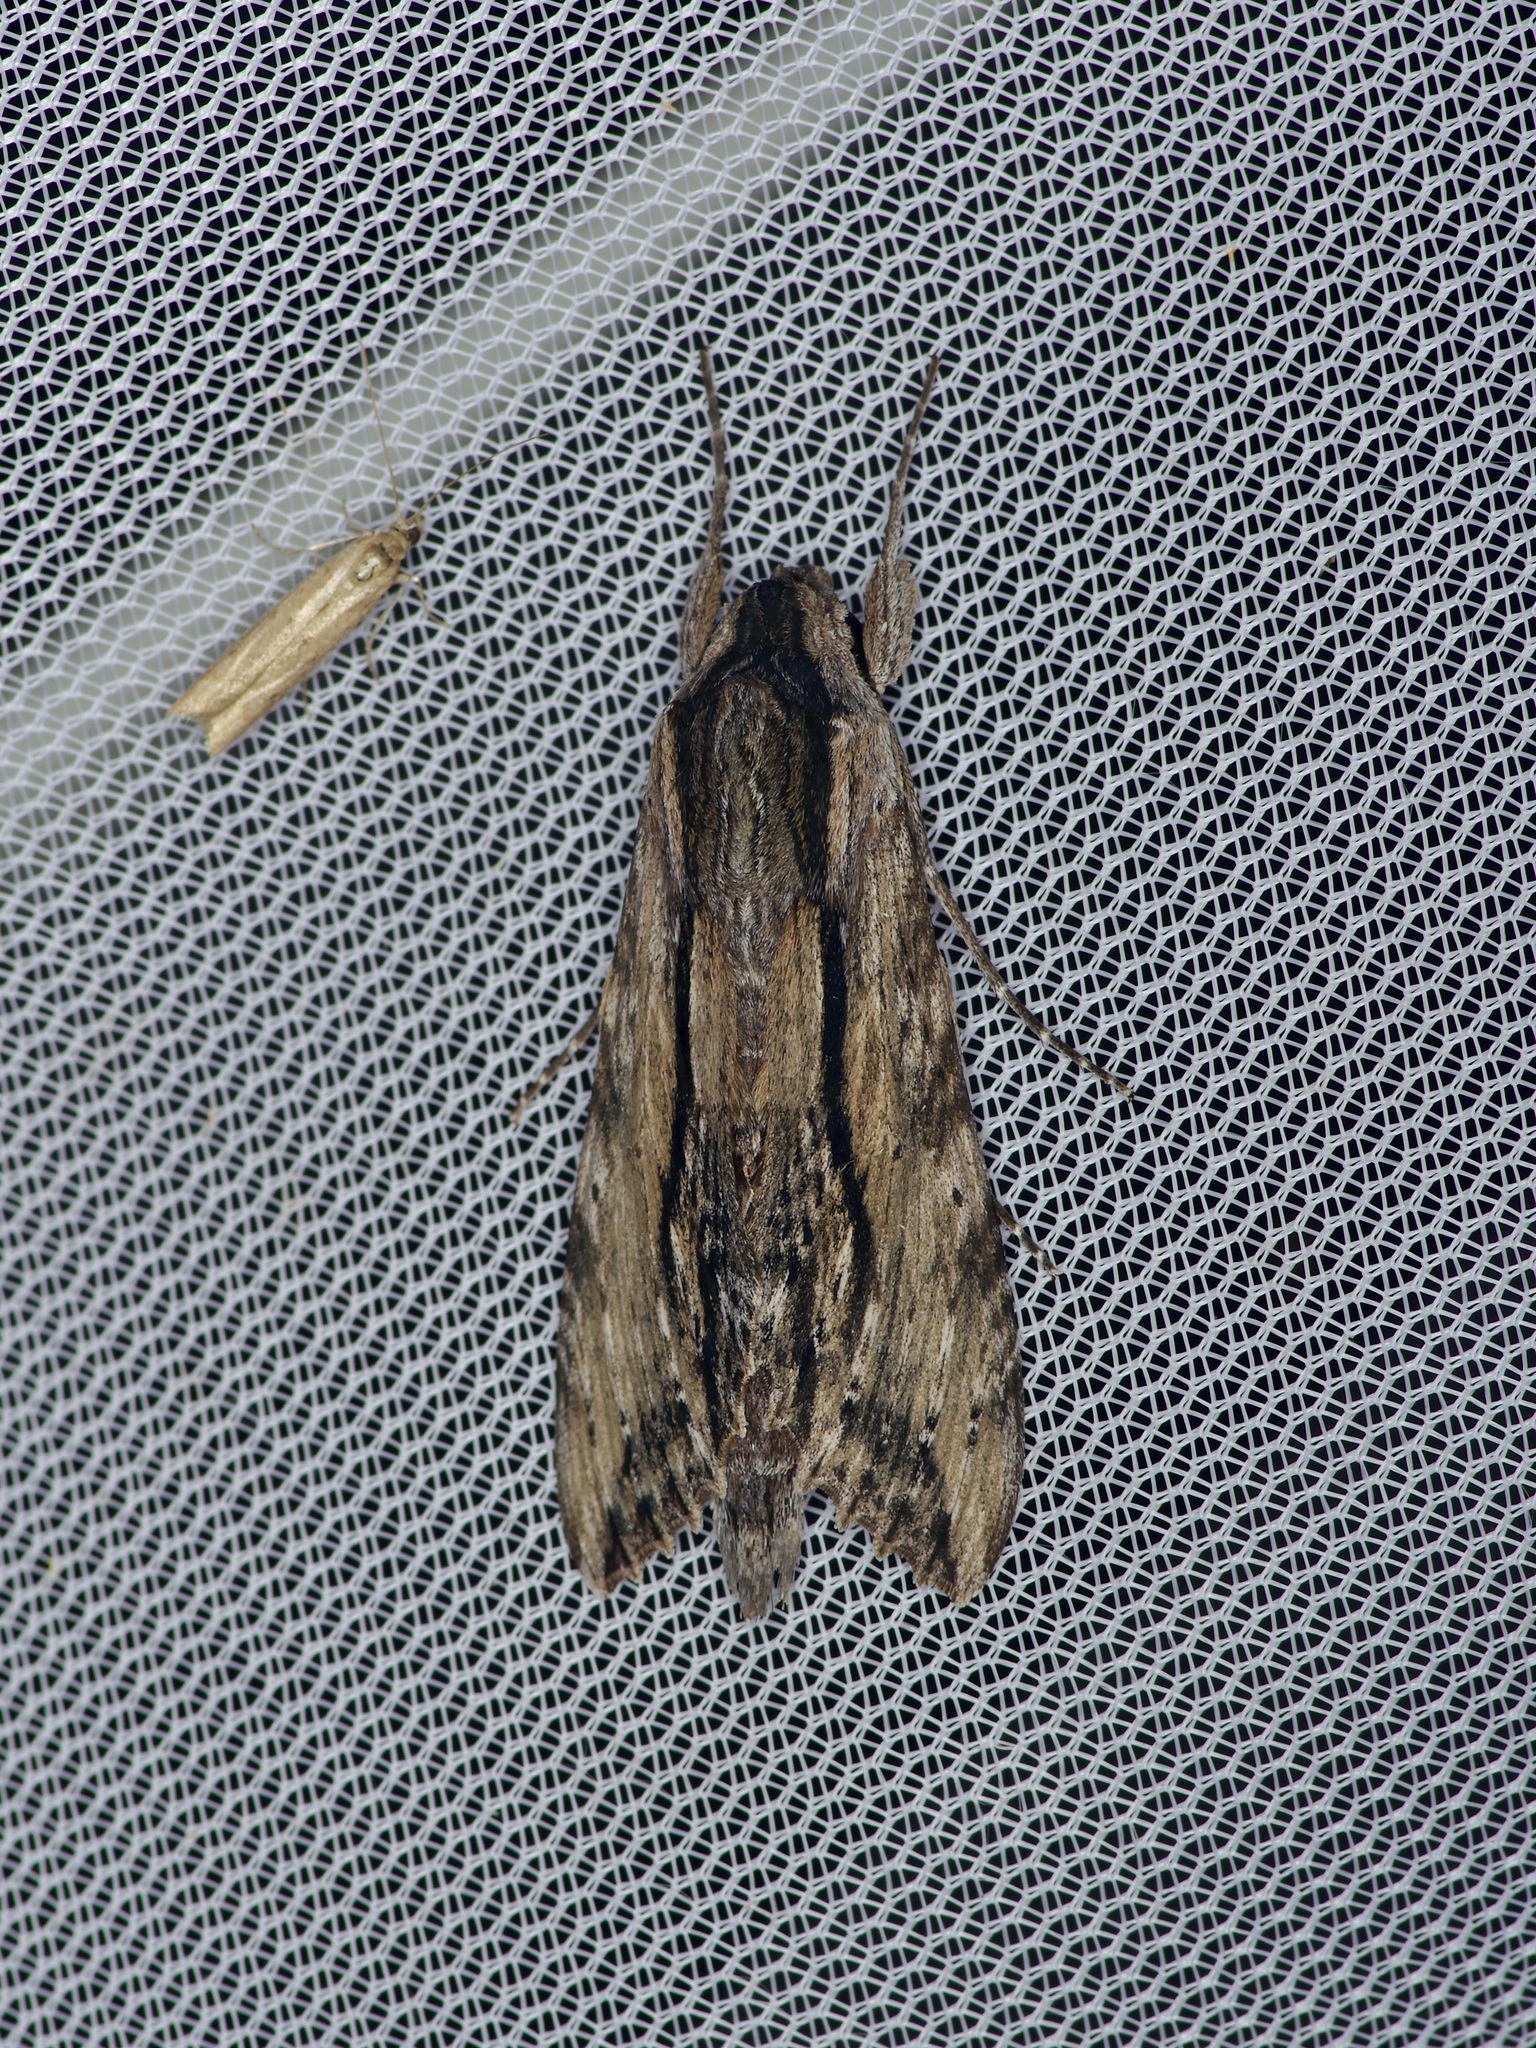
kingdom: Animalia
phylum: Arthropoda
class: Insecta
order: Lepidoptera
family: Sphingidae
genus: Erinnyis
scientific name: Erinnyis obscura
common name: Obscure sphinx
